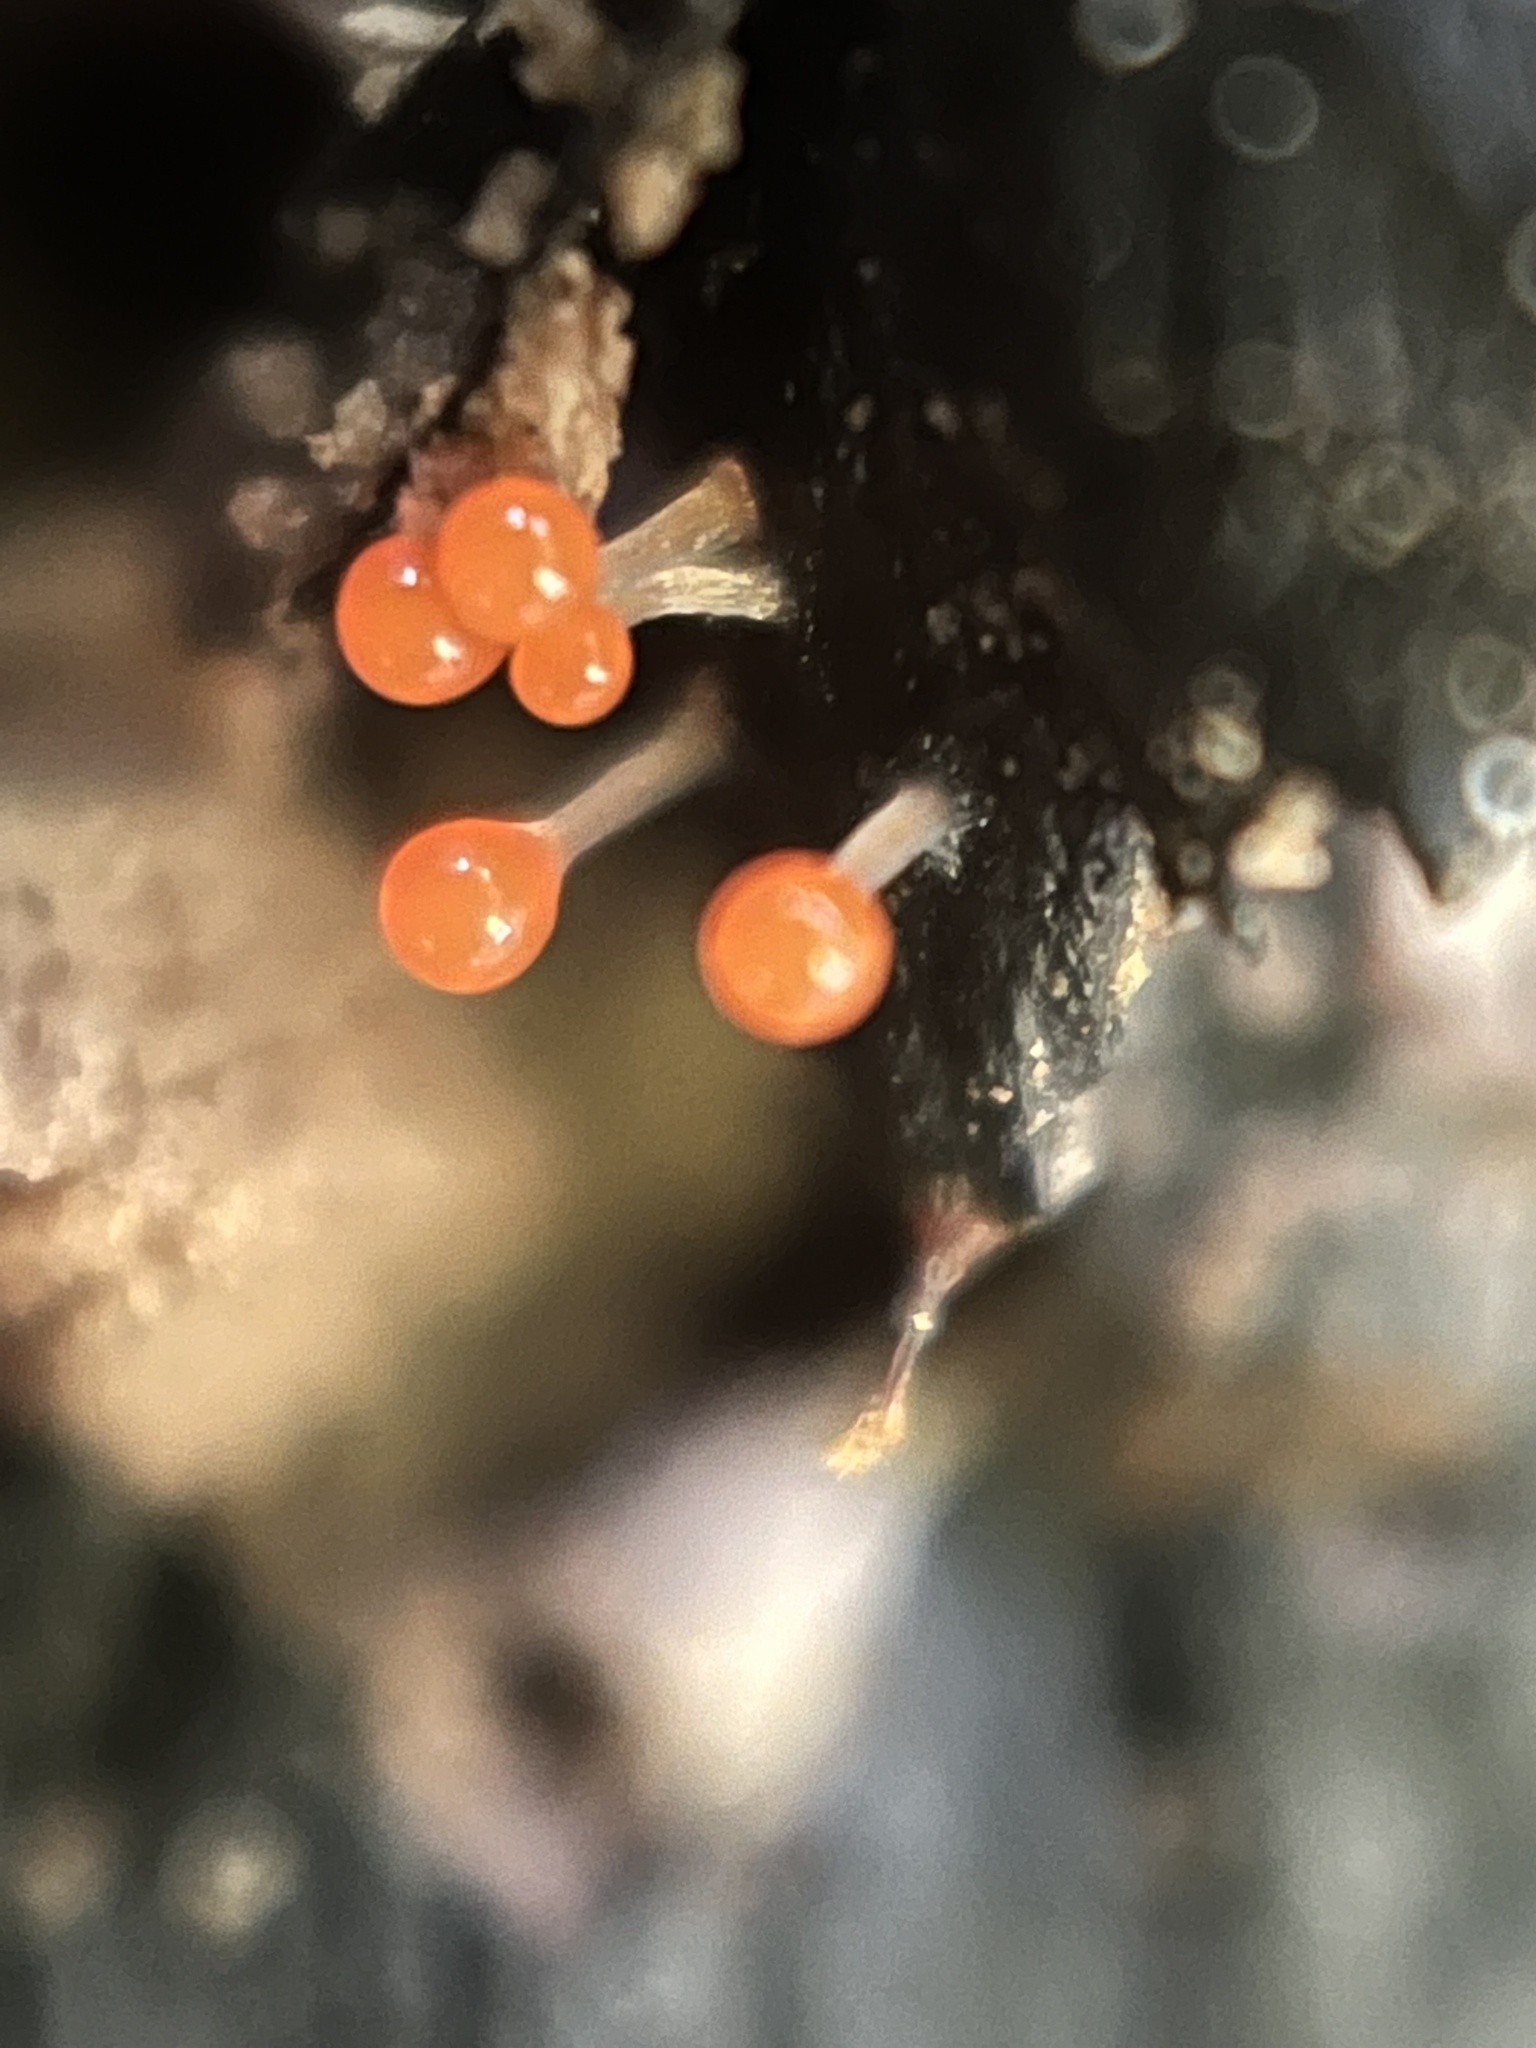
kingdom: Protozoa
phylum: Mycetozoa
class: Myxomycetes
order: Trichiales
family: Arcyriaceae
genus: Hemitrichia
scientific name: Hemitrichia decipiens
